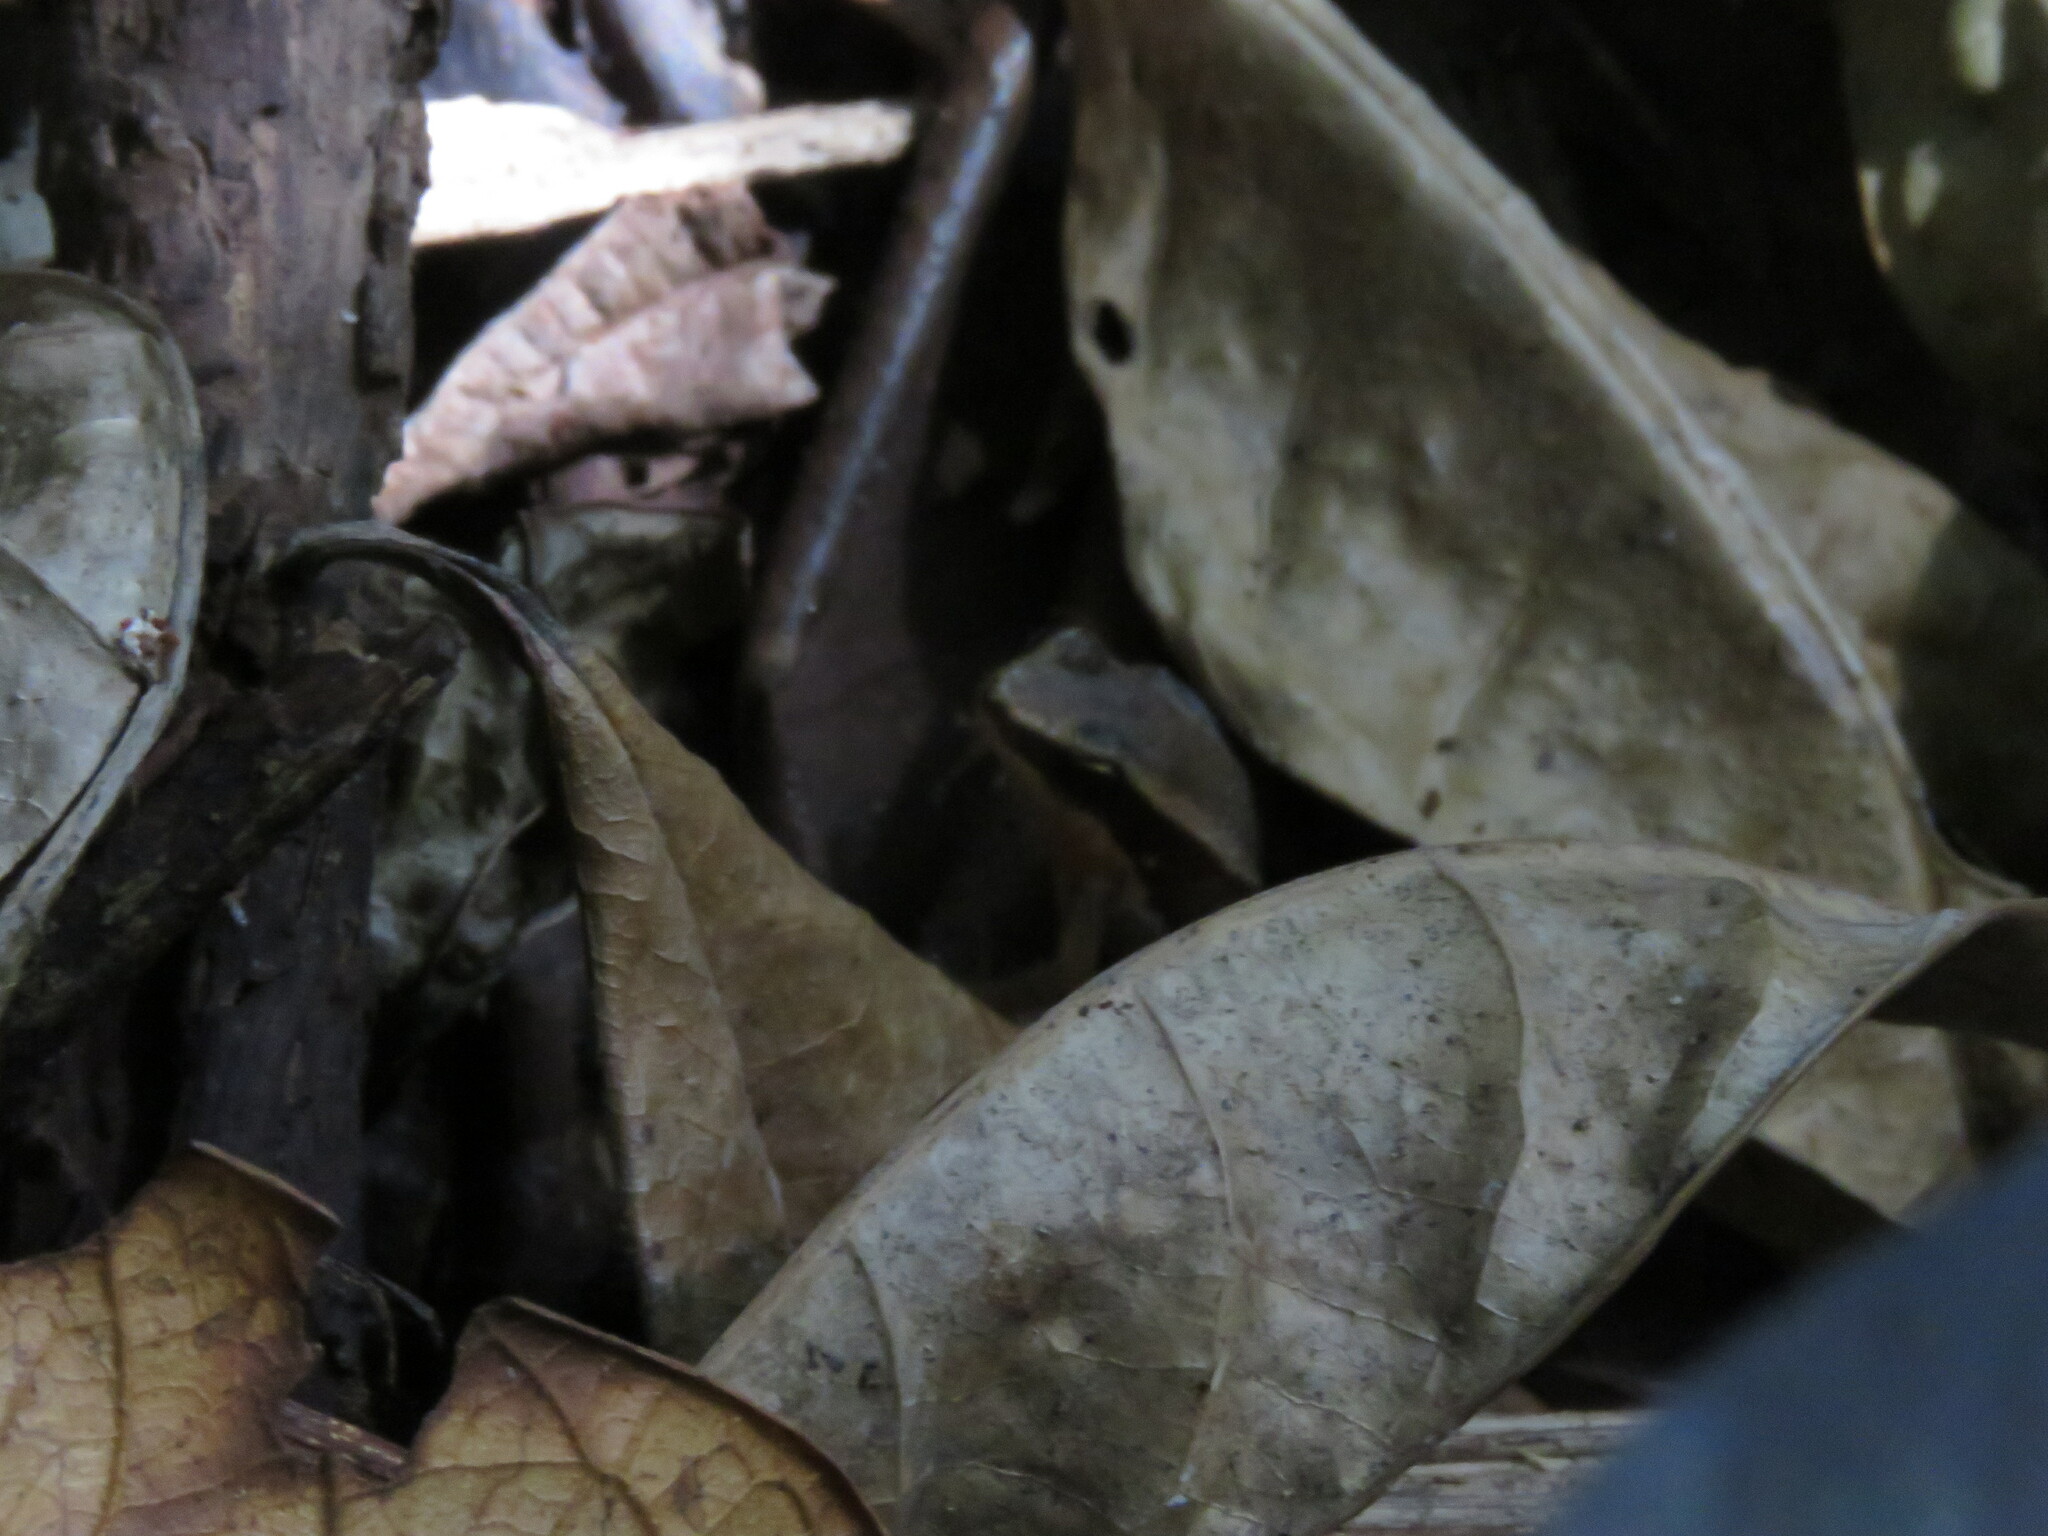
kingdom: Animalia
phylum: Chordata
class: Amphibia
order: Anura
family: Aromobatidae
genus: Allobates
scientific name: Allobates trilineatus
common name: Three-striped rocket frog
